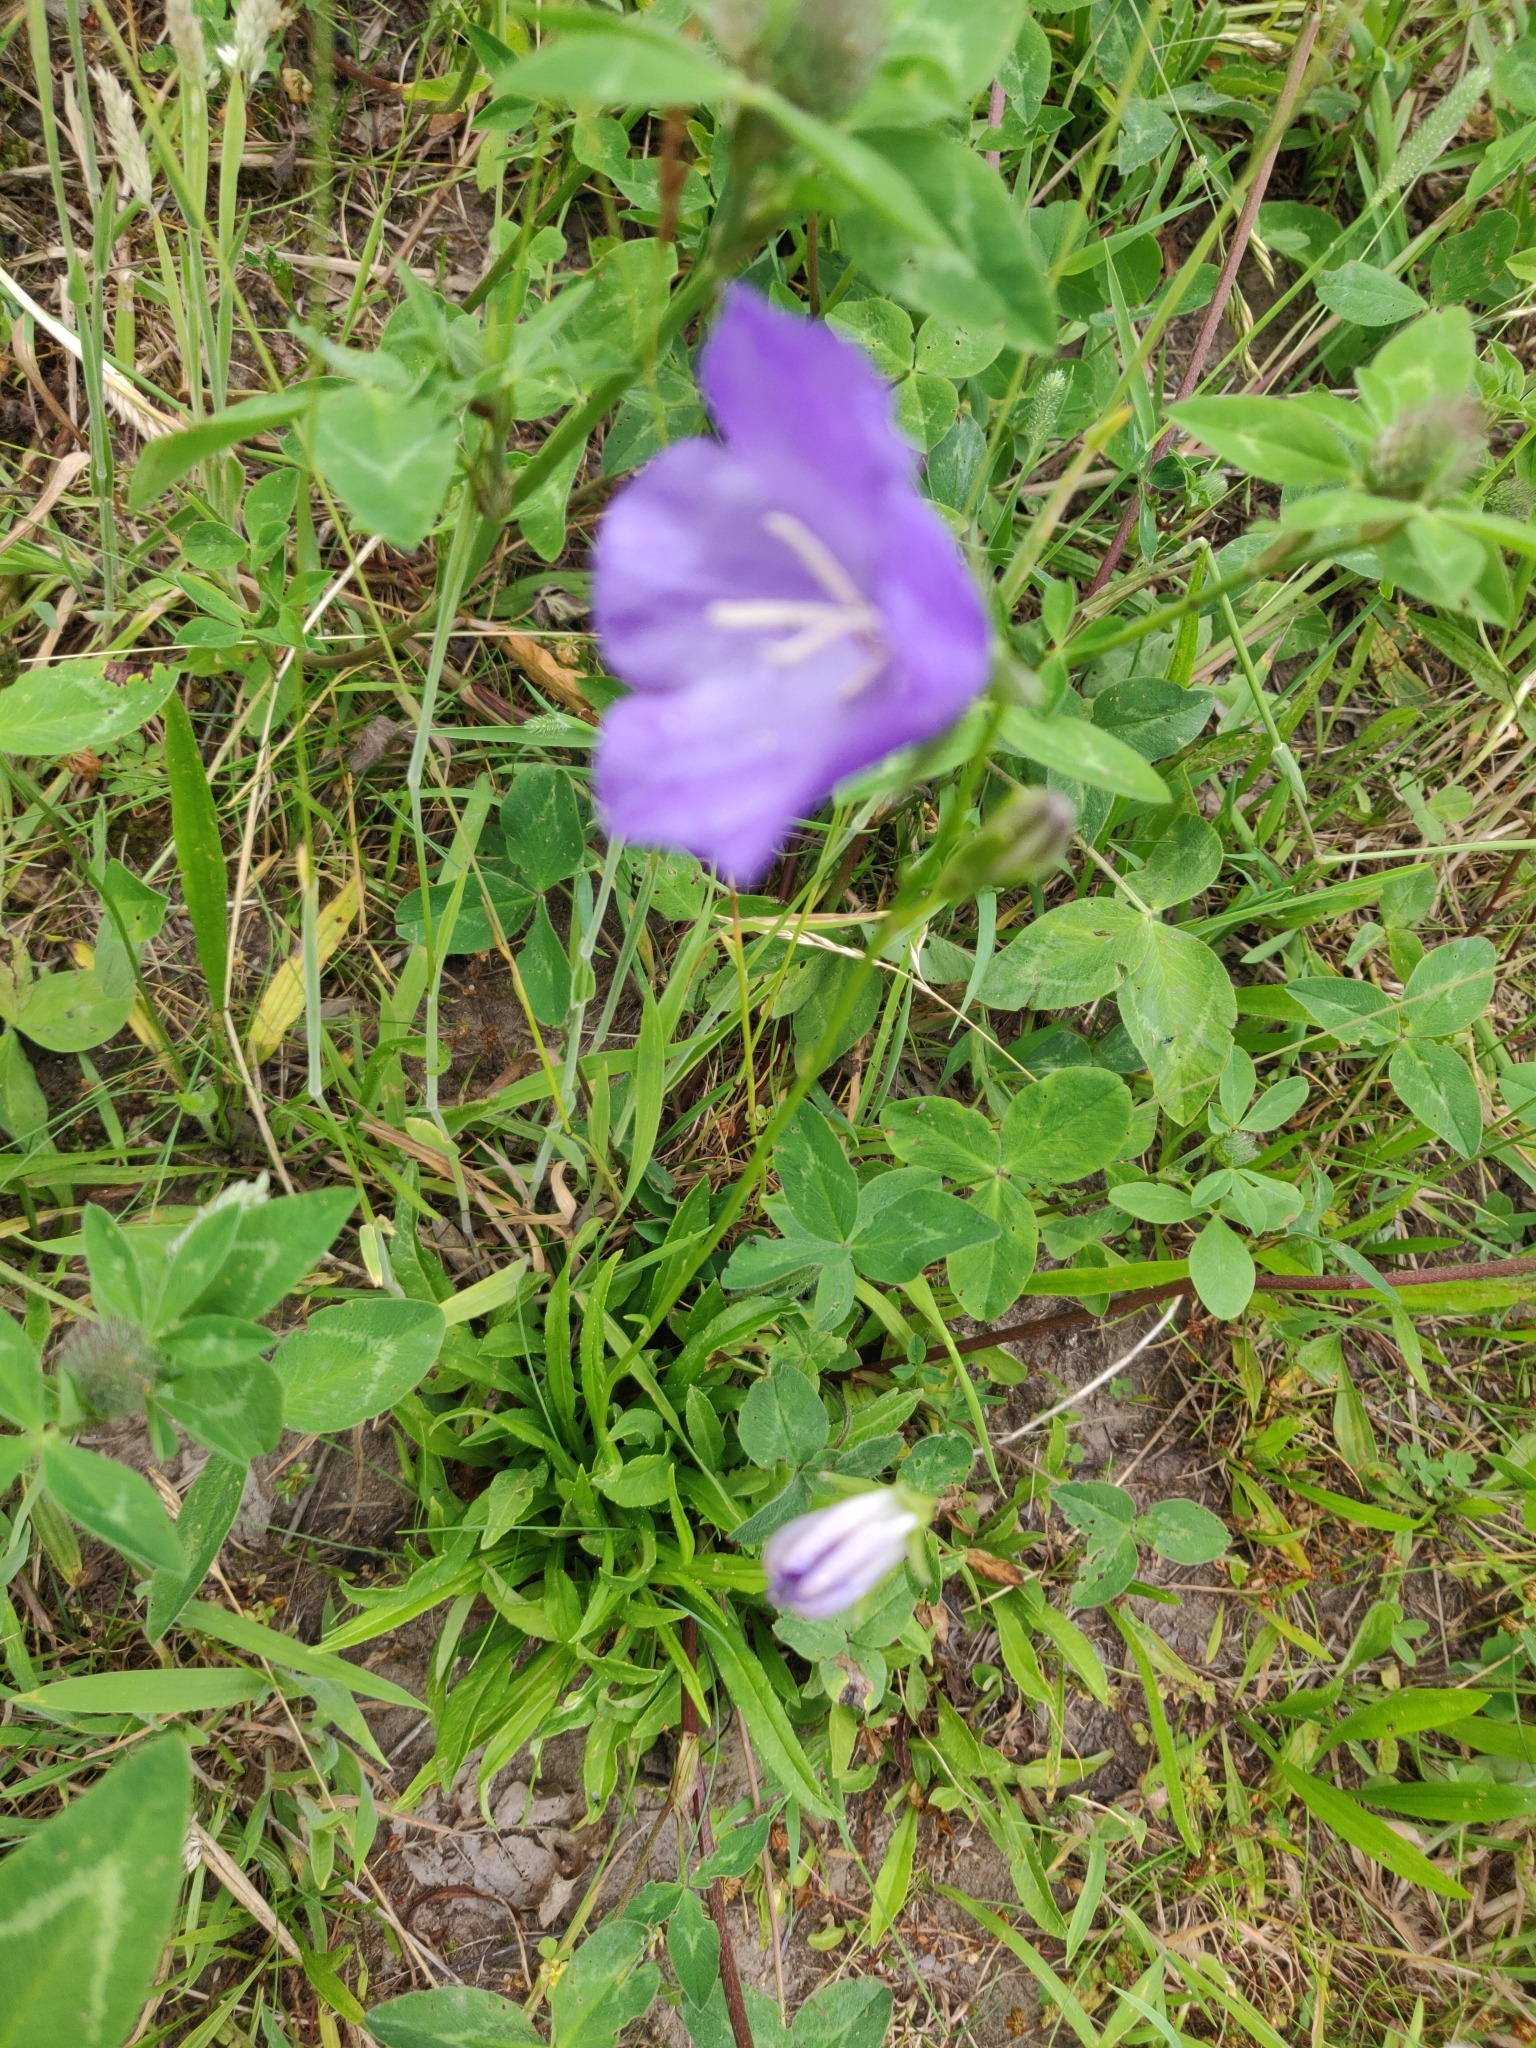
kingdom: Plantae
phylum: Tracheophyta
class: Magnoliopsida
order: Asterales
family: Campanulaceae
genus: Campanula
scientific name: Campanula persicifolia
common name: Peach-leaved bellflower
